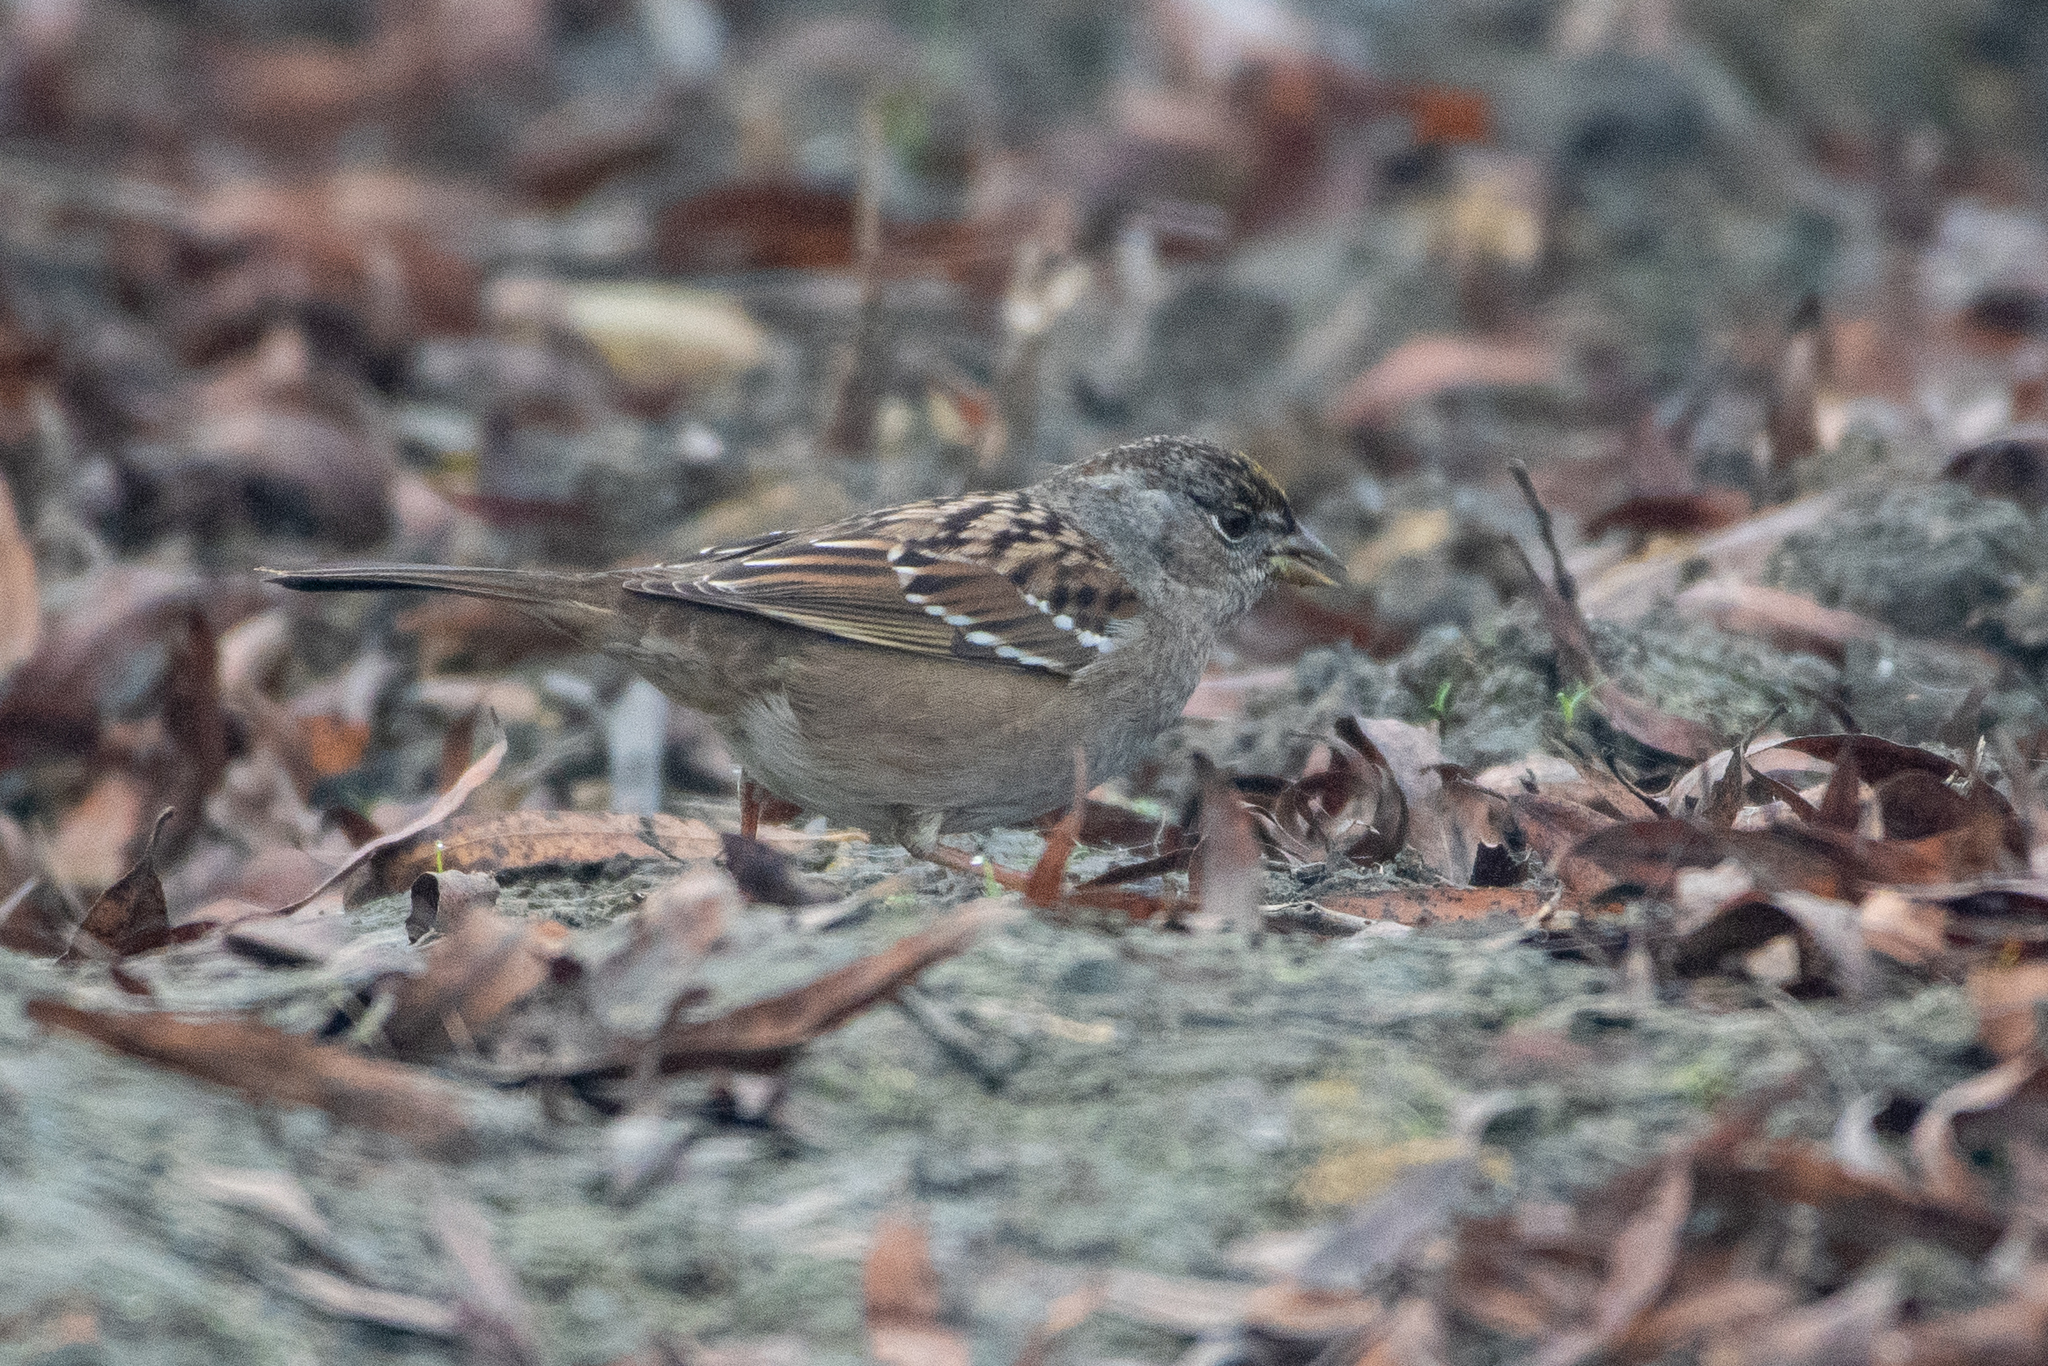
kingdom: Animalia
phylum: Chordata
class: Aves
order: Passeriformes
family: Passerellidae
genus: Zonotrichia
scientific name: Zonotrichia atricapilla
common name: Golden-crowned sparrow
